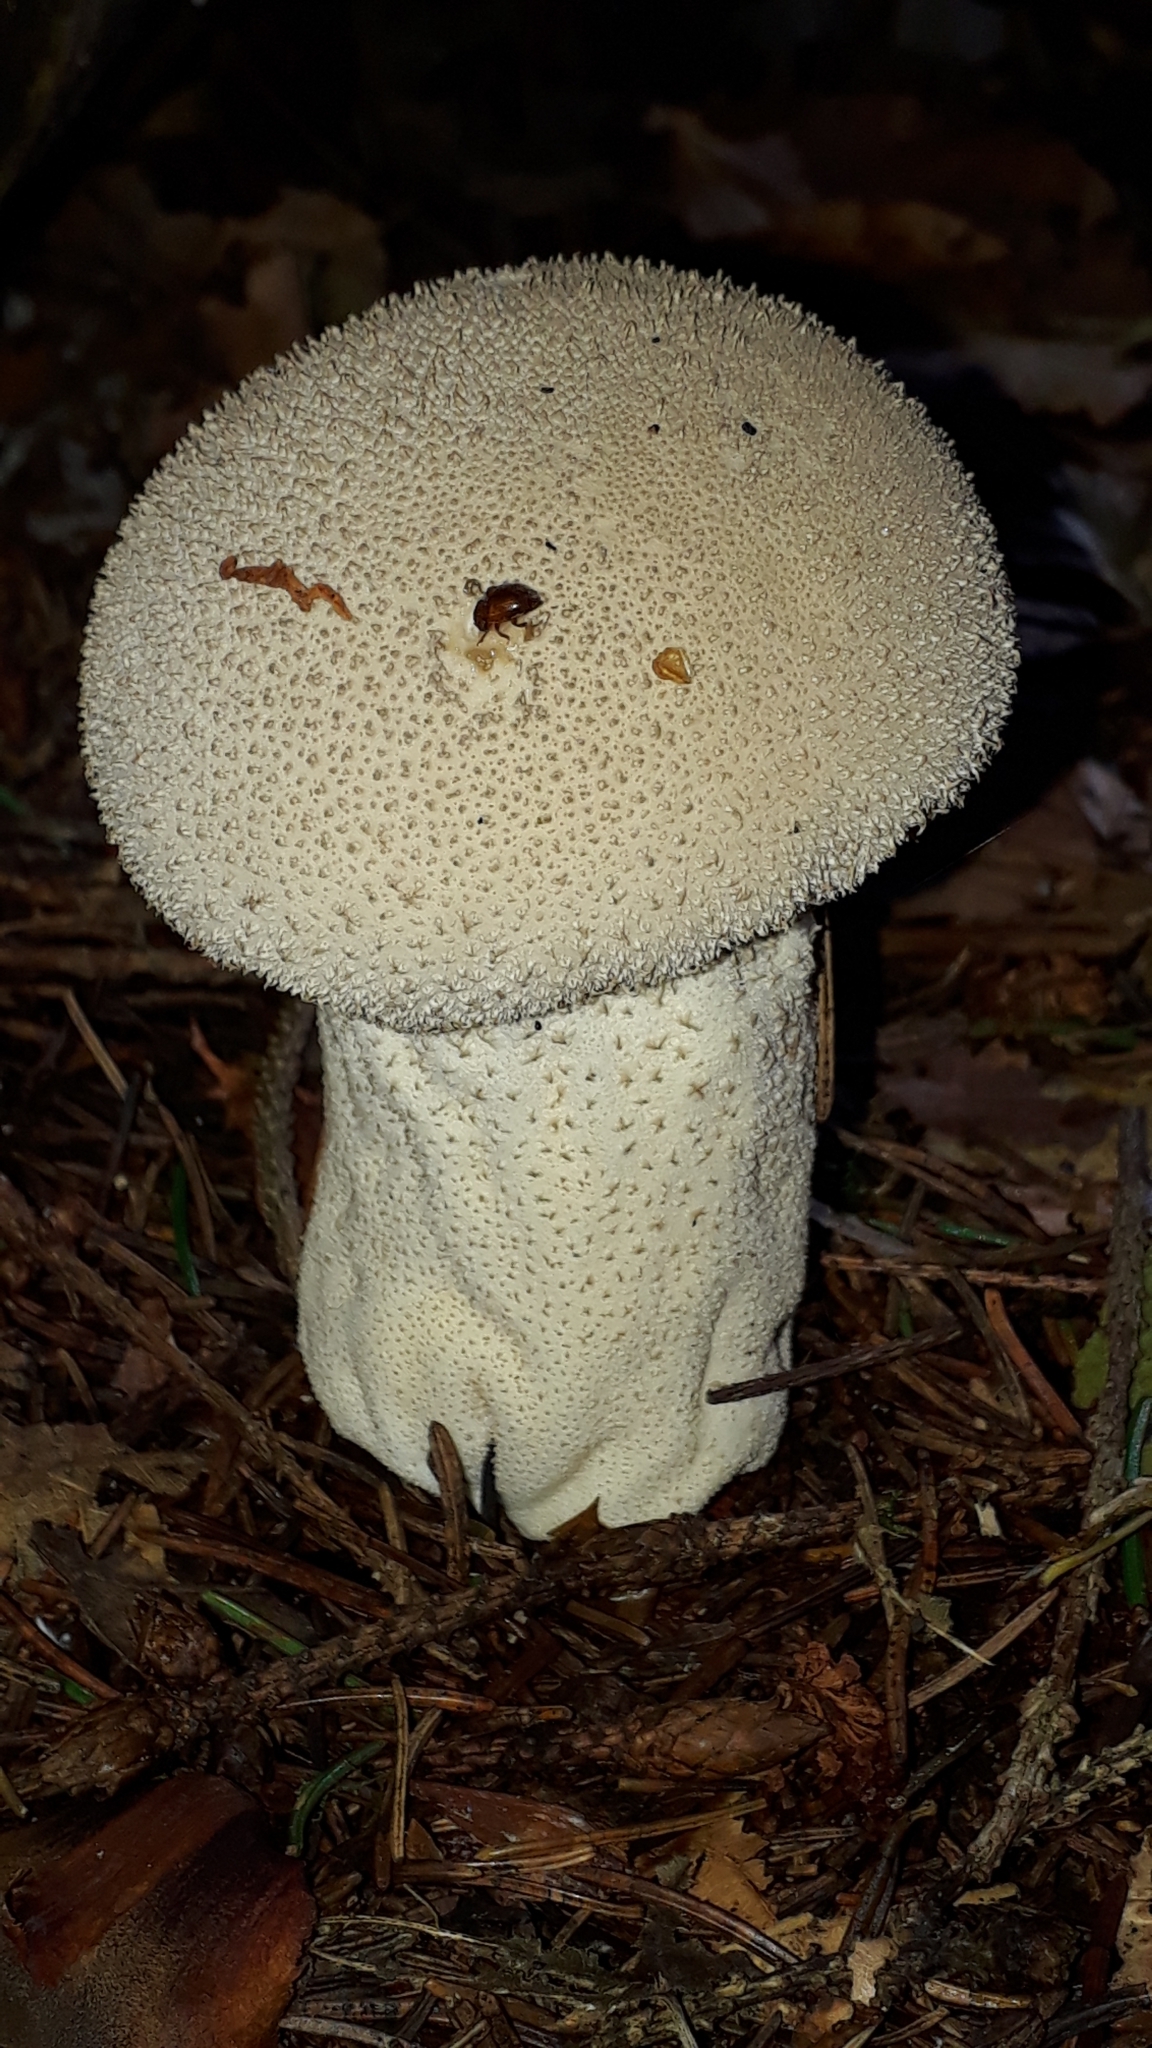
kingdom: Fungi
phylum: Basidiomycota
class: Agaricomycetes
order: Agaricales
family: Lycoperdaceae
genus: Lycoperdon
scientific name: Lycoperdon excipuliforme
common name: Pestle puffball
